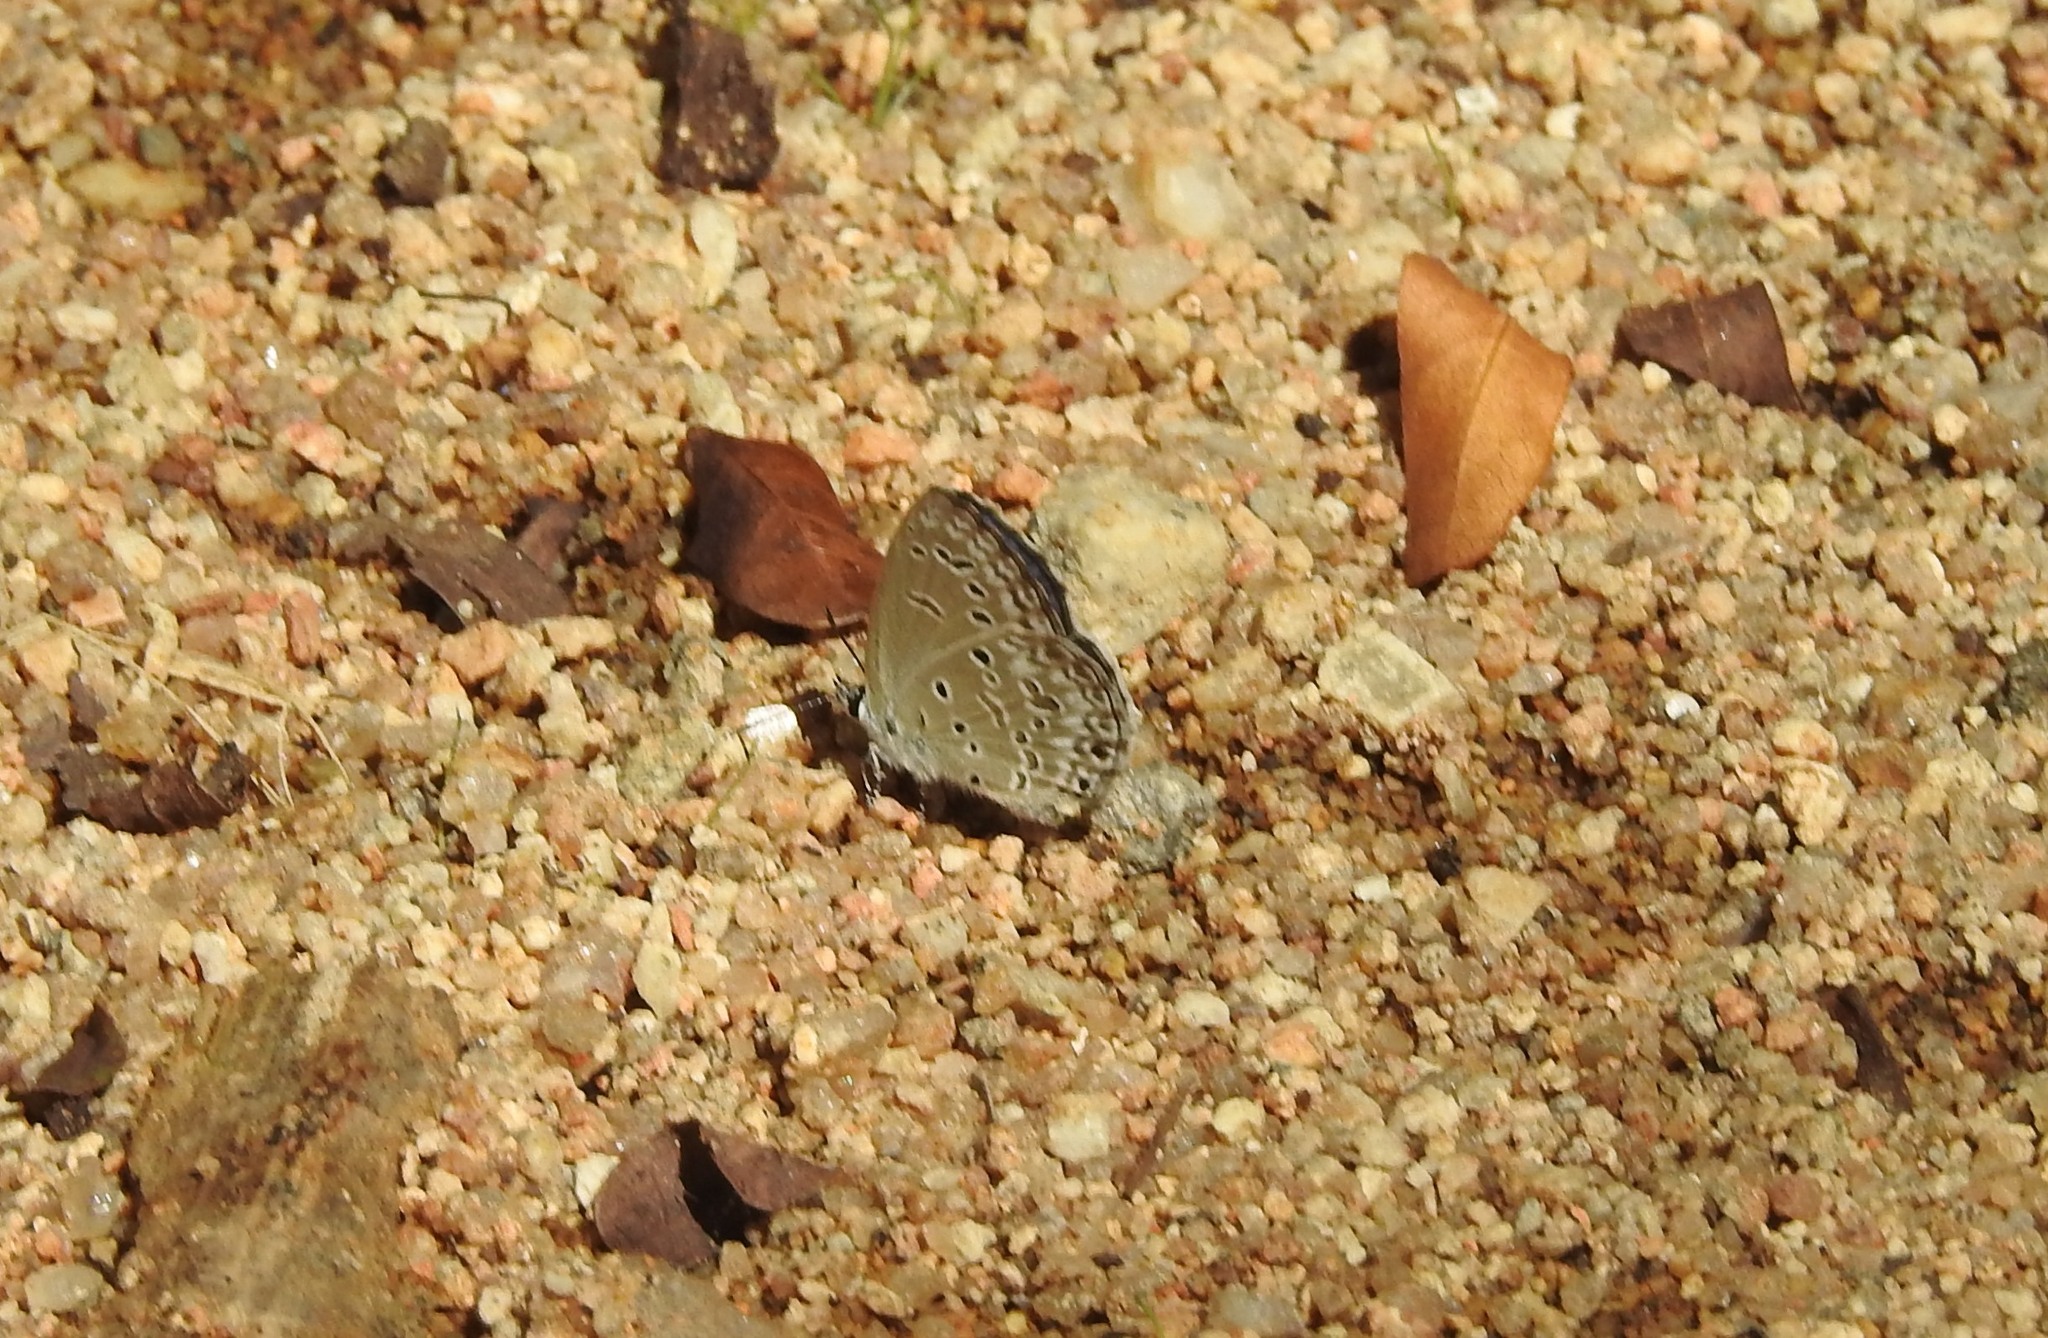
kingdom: Animalia
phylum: Arthropoda
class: Insecta
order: Lepidoptera
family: Lycaenidae
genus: Chilades
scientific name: Chilades laius
